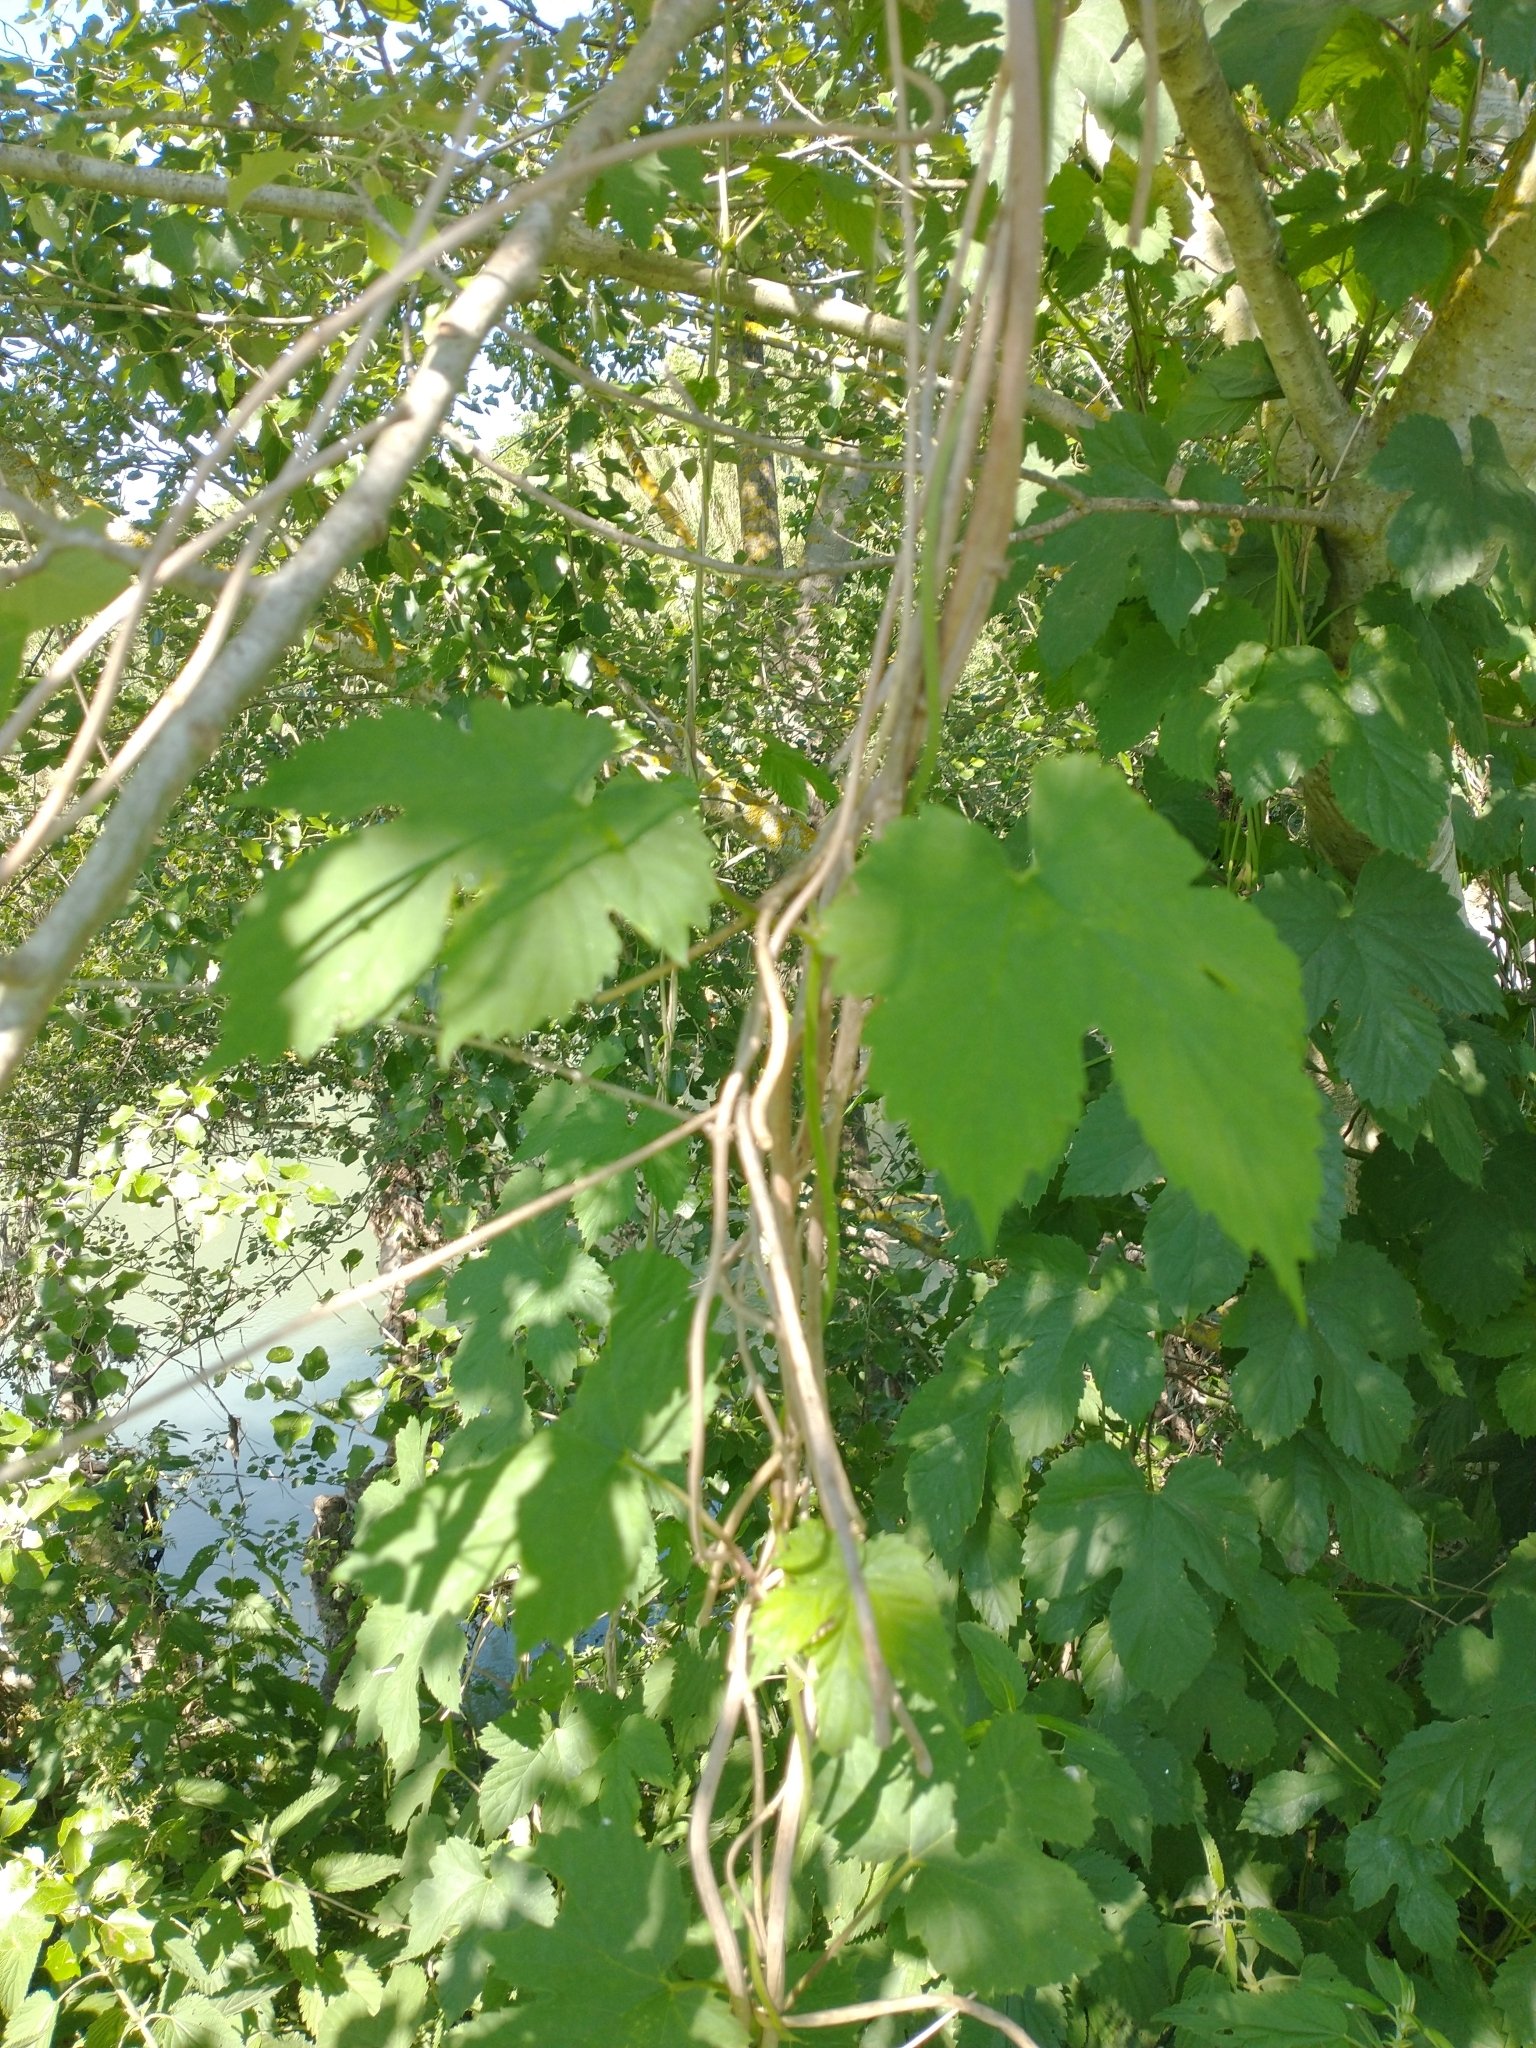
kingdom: Plantae
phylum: Tracheophyta
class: Magnoliopsida
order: Rosales
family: Cannabaceae
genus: Humulus
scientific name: Humulus lupulus
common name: Hop
